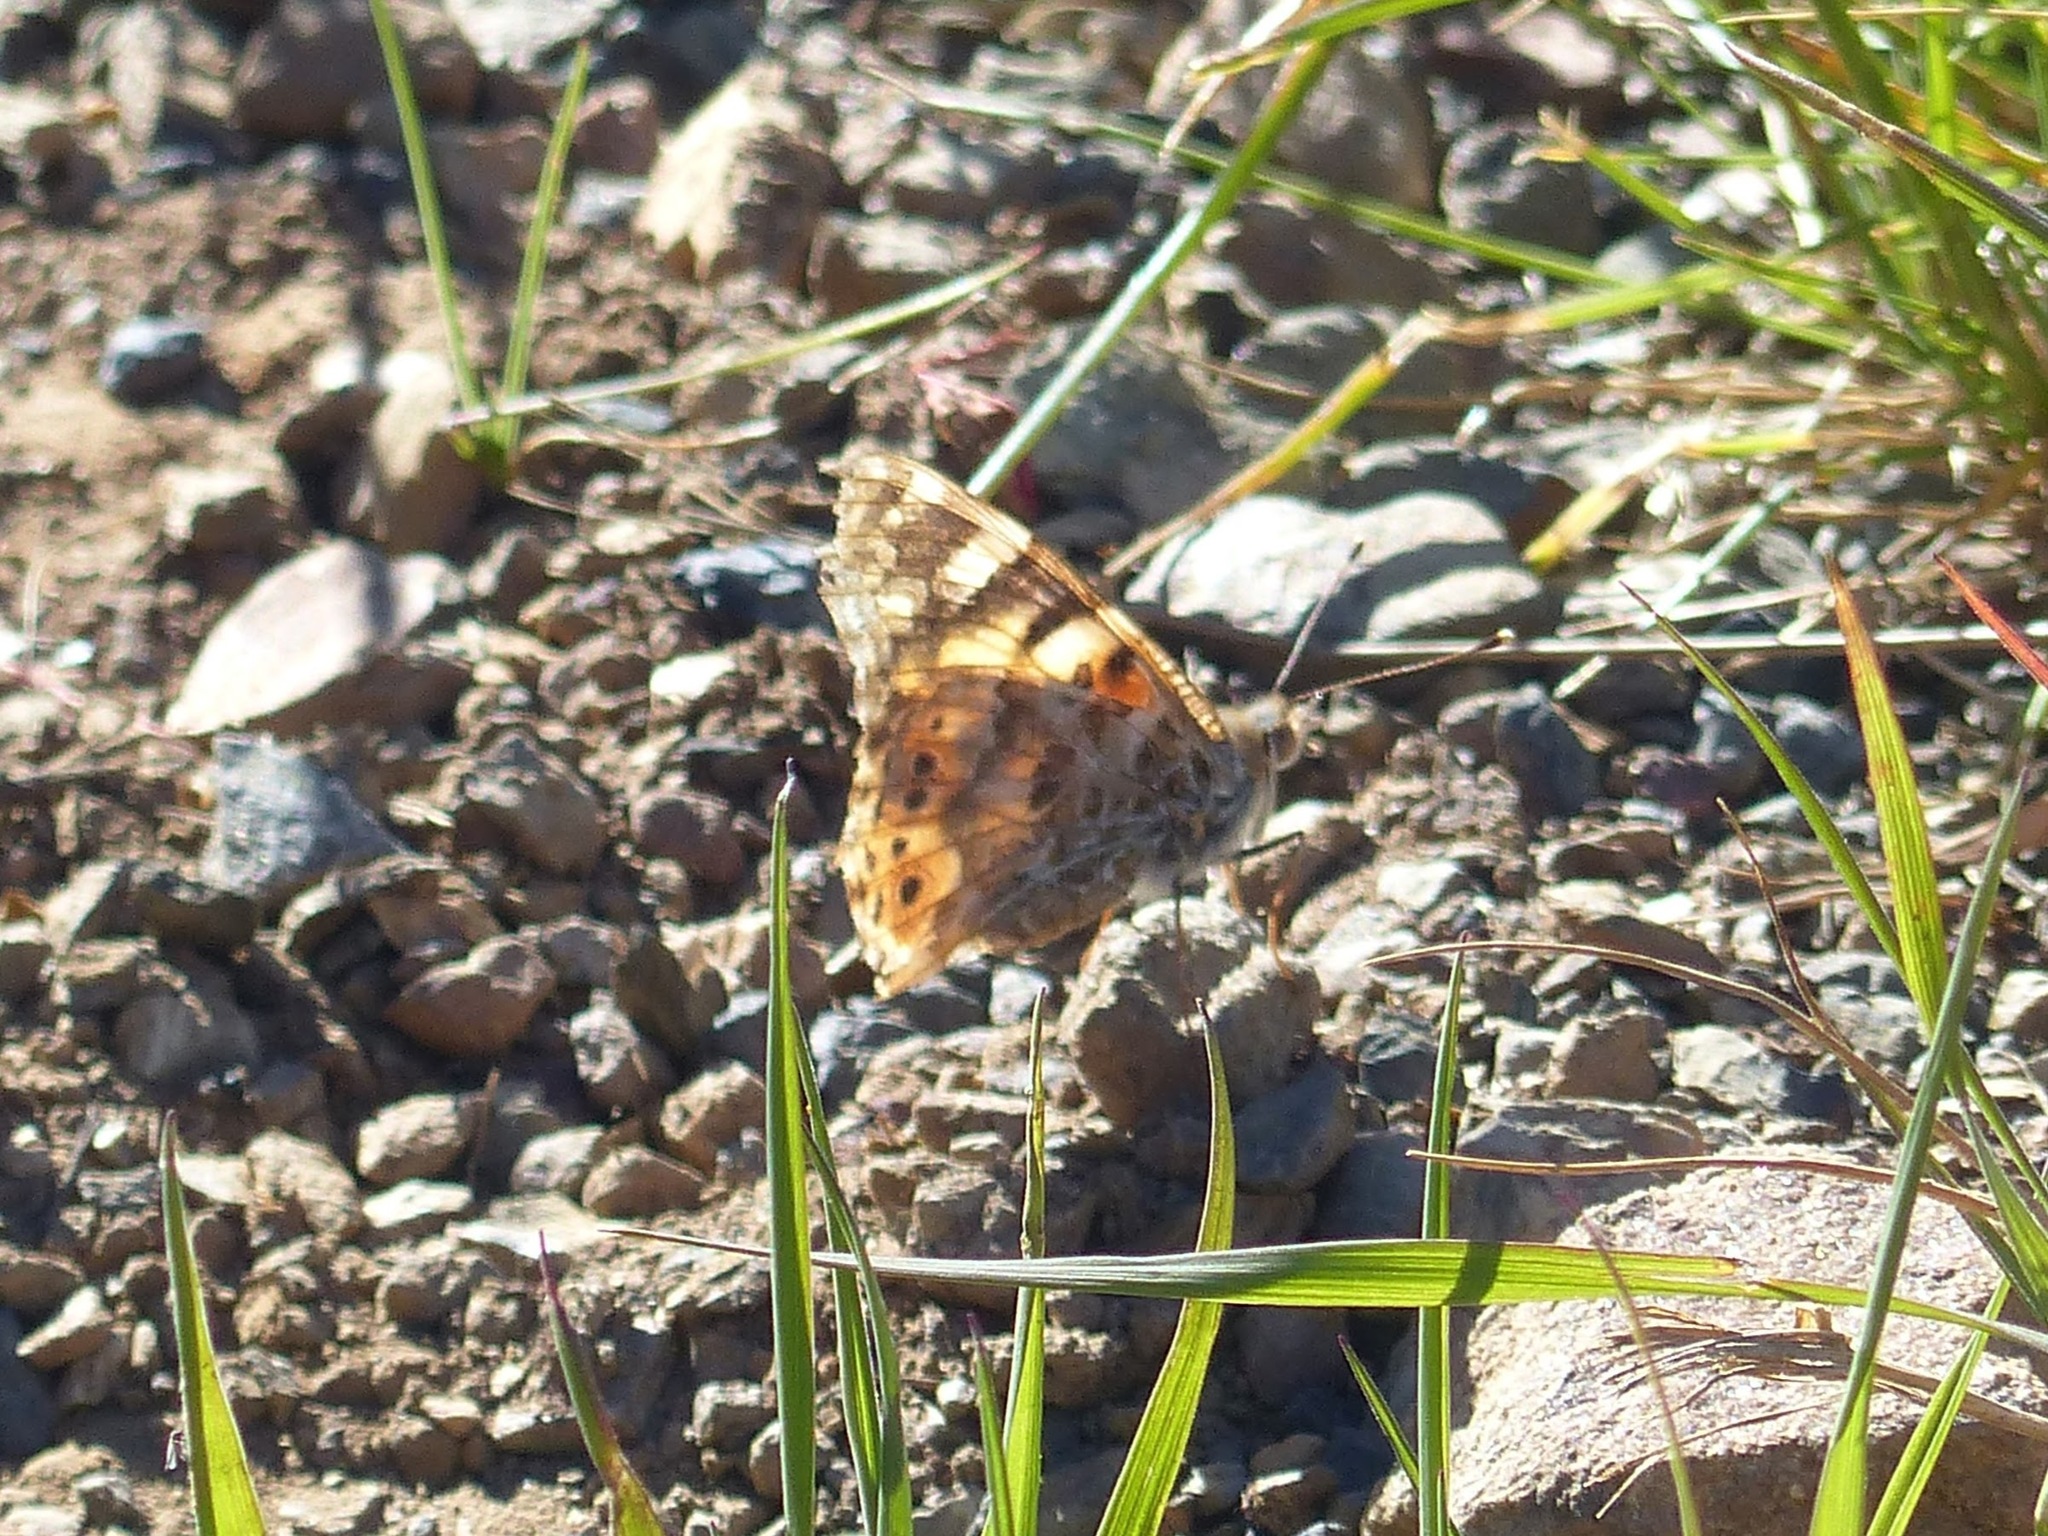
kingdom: Animalia
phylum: Arthropoda
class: Insecta
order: Lepidoptera
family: Nymphalidae
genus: Vanessa
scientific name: Vanessa cardui
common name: Painted lady
